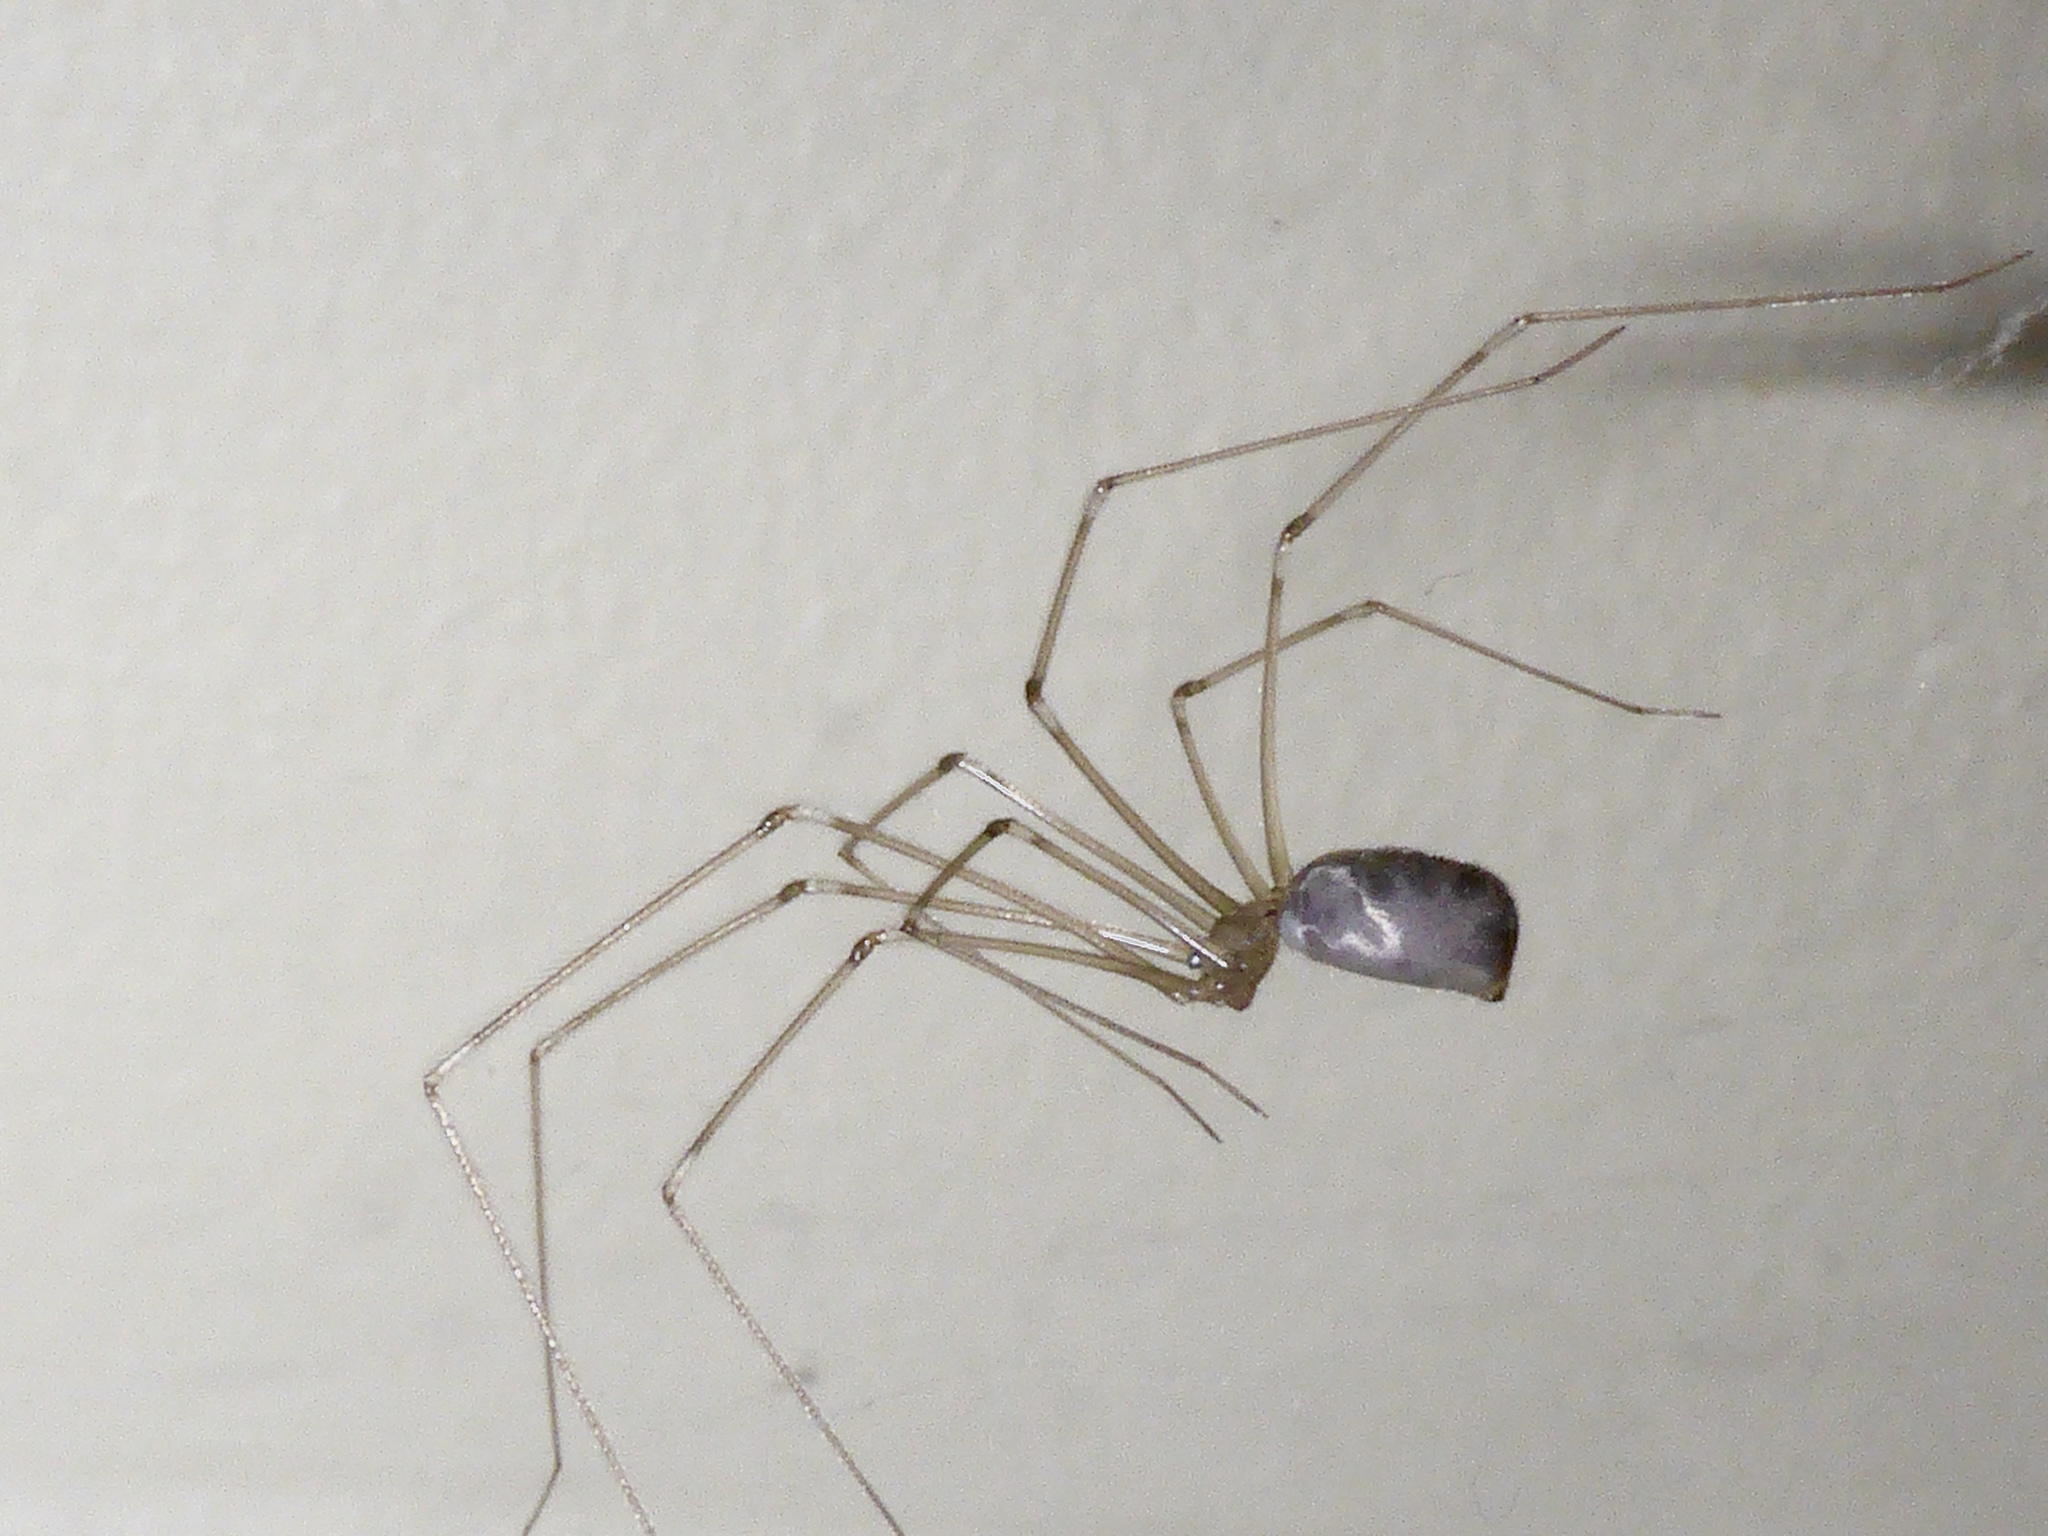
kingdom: Animalia
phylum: Arthropoda
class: Arachnida
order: Araneae
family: Pholcidae
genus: Pholcus
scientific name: Pholcus phalangioides
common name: Longbodied cellar spider
